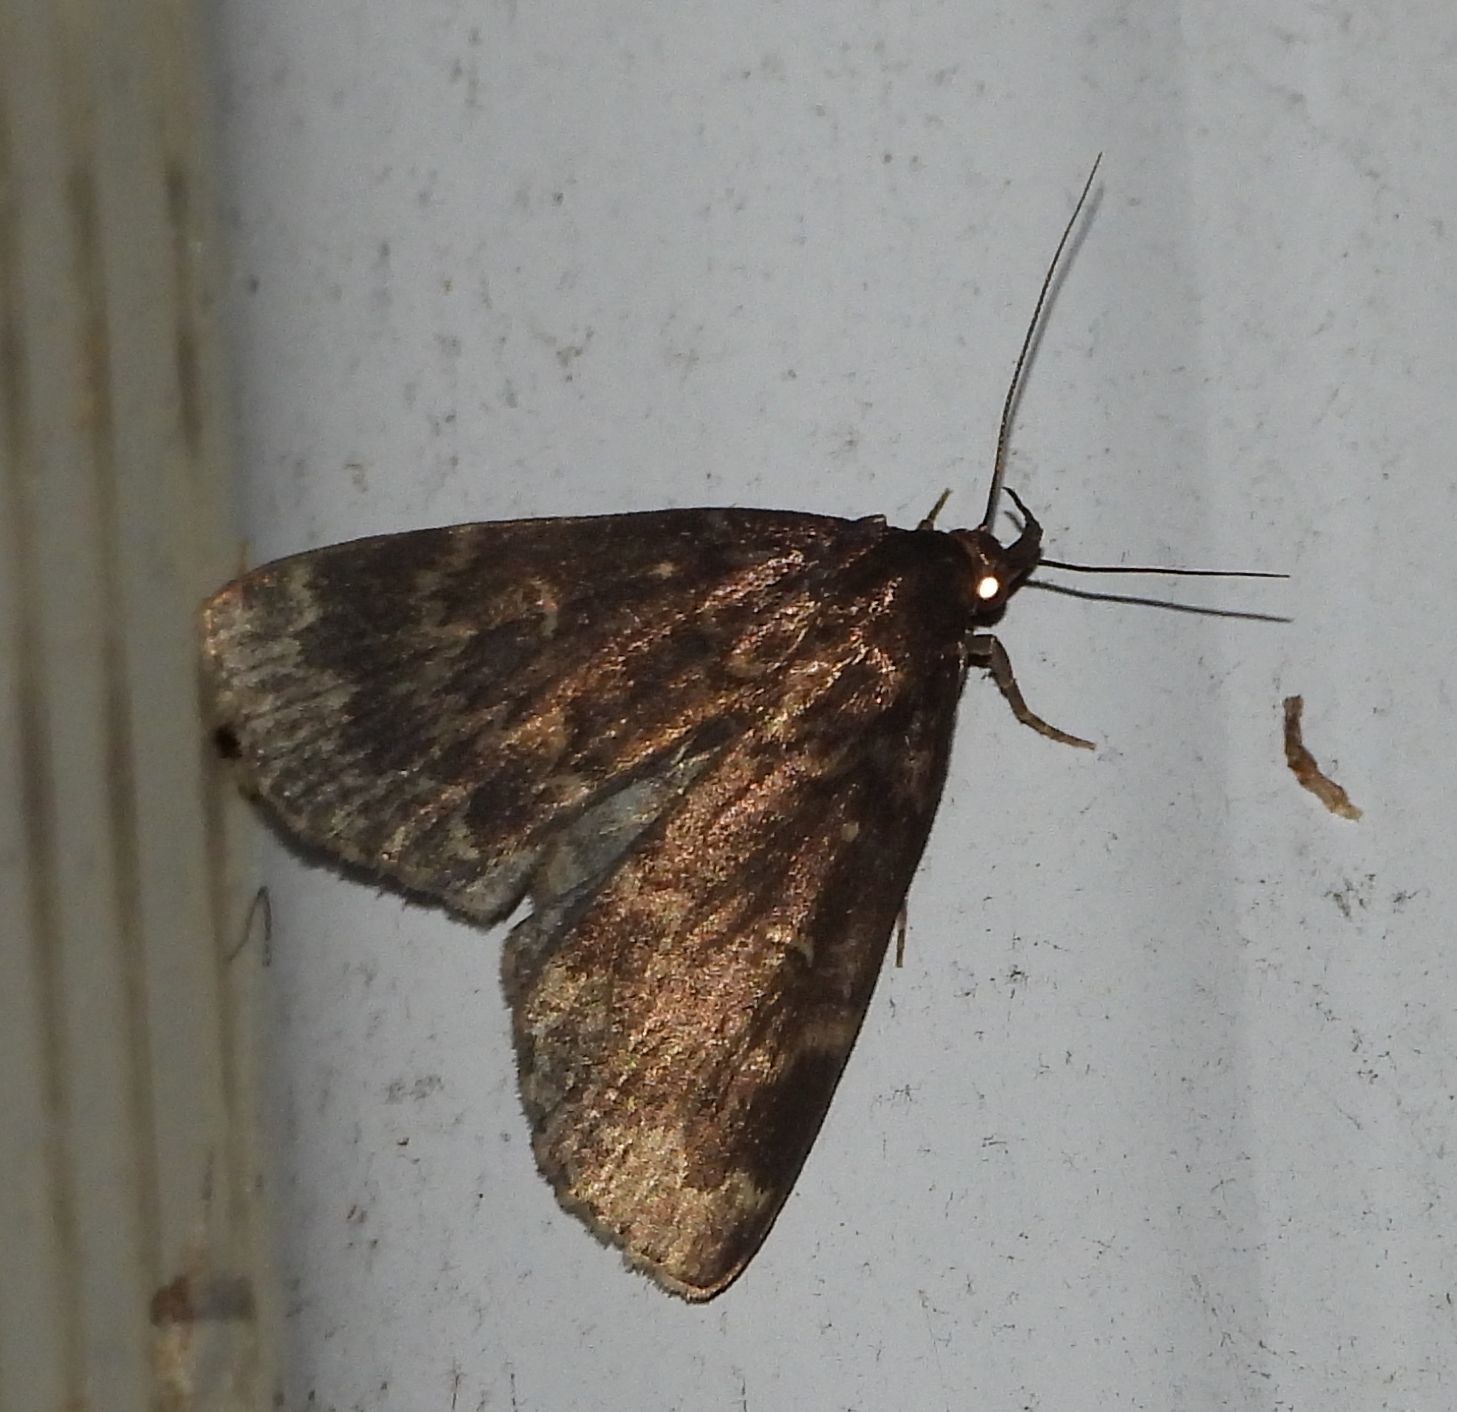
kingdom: Animalia
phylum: Arthropoda
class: Insecta
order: Lepidoptera
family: Erebidae
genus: Idia
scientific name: Idia lubricalis
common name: Twin-striped tabby
